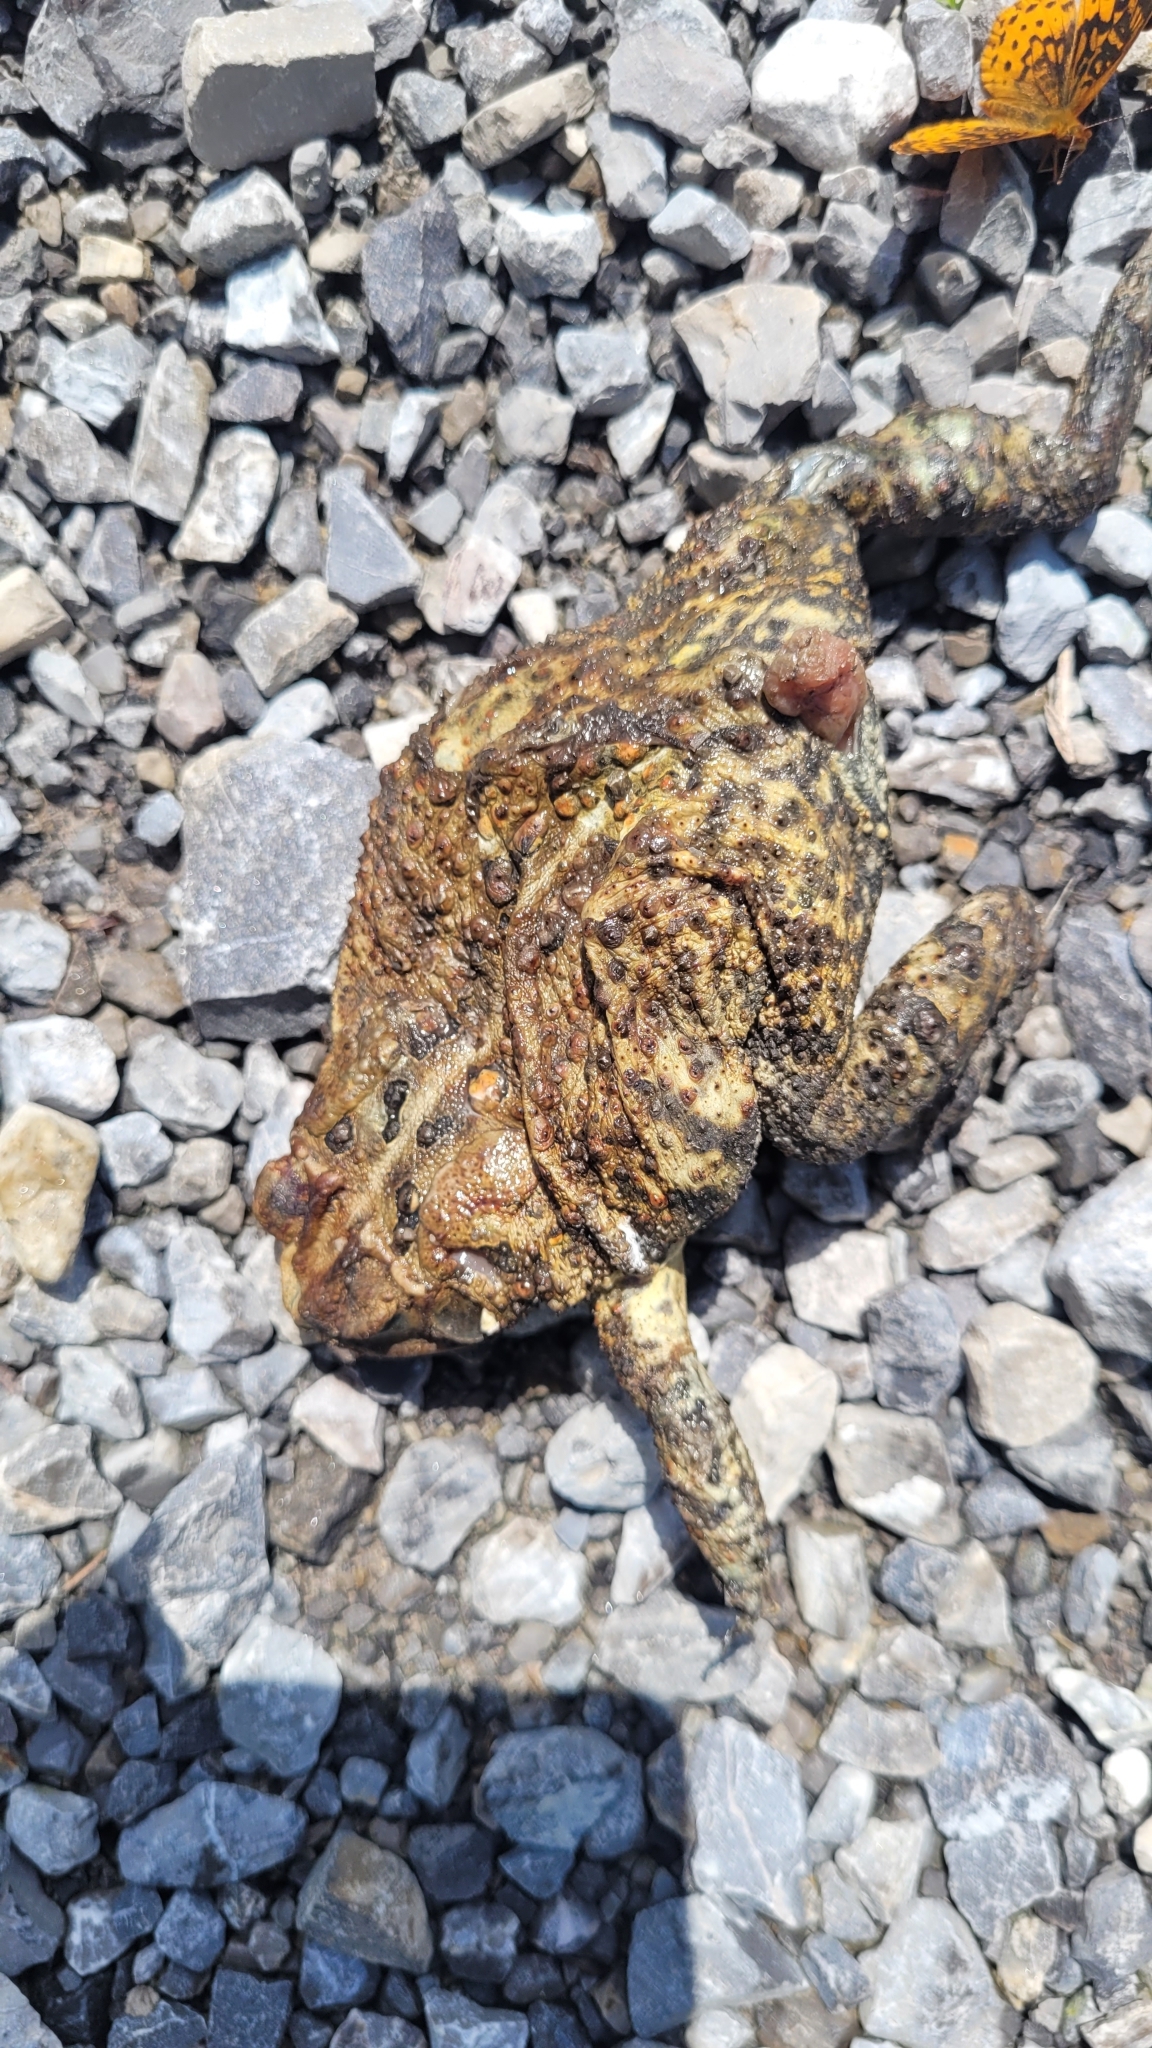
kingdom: Animalia
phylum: Chordata
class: Amphibia
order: Anura
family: Bufonidae
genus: Anaxyrus
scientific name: Anaxyrus americanus
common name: American toad
